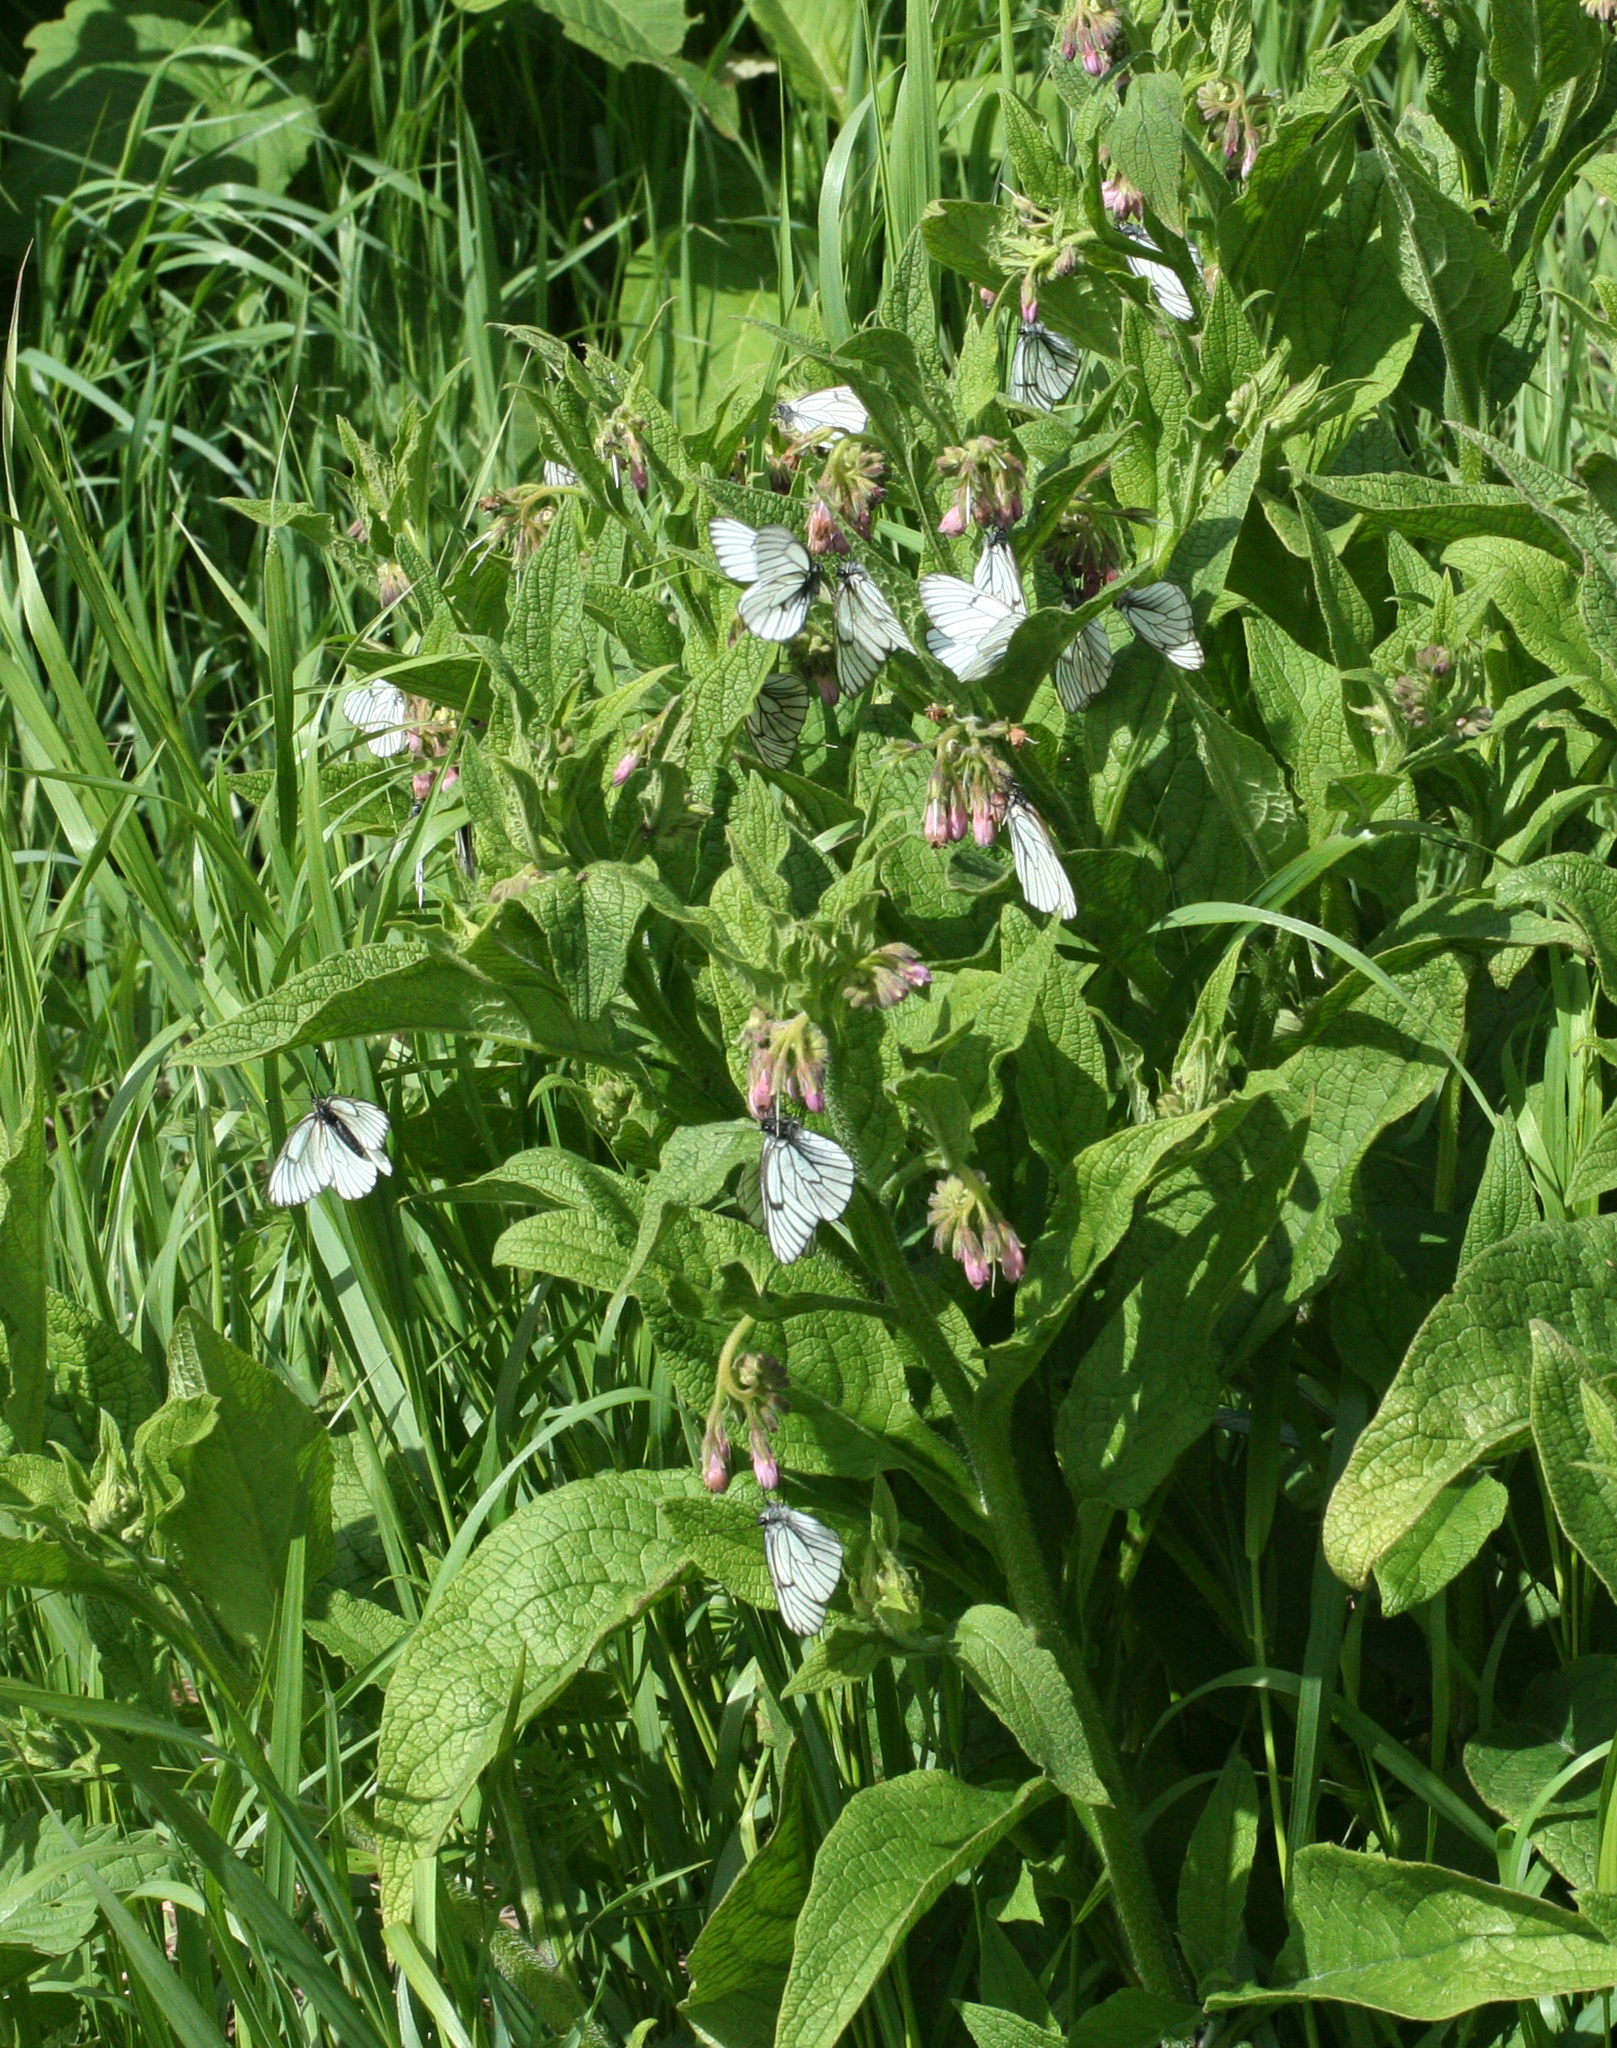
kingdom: Animalia
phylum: Arthropoda
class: Insecta
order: Lepidoptera
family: Pieridae
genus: Aporia
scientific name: Aporia crataegi
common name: Black-veined white
